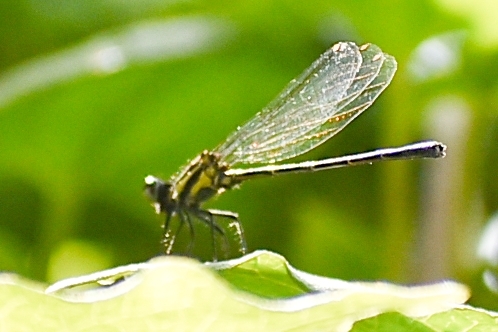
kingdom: Animalia
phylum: Arthropoda
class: Insecta
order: Odonata
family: Platycnemididae
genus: Onychargia
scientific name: Onychargia atrocyana
